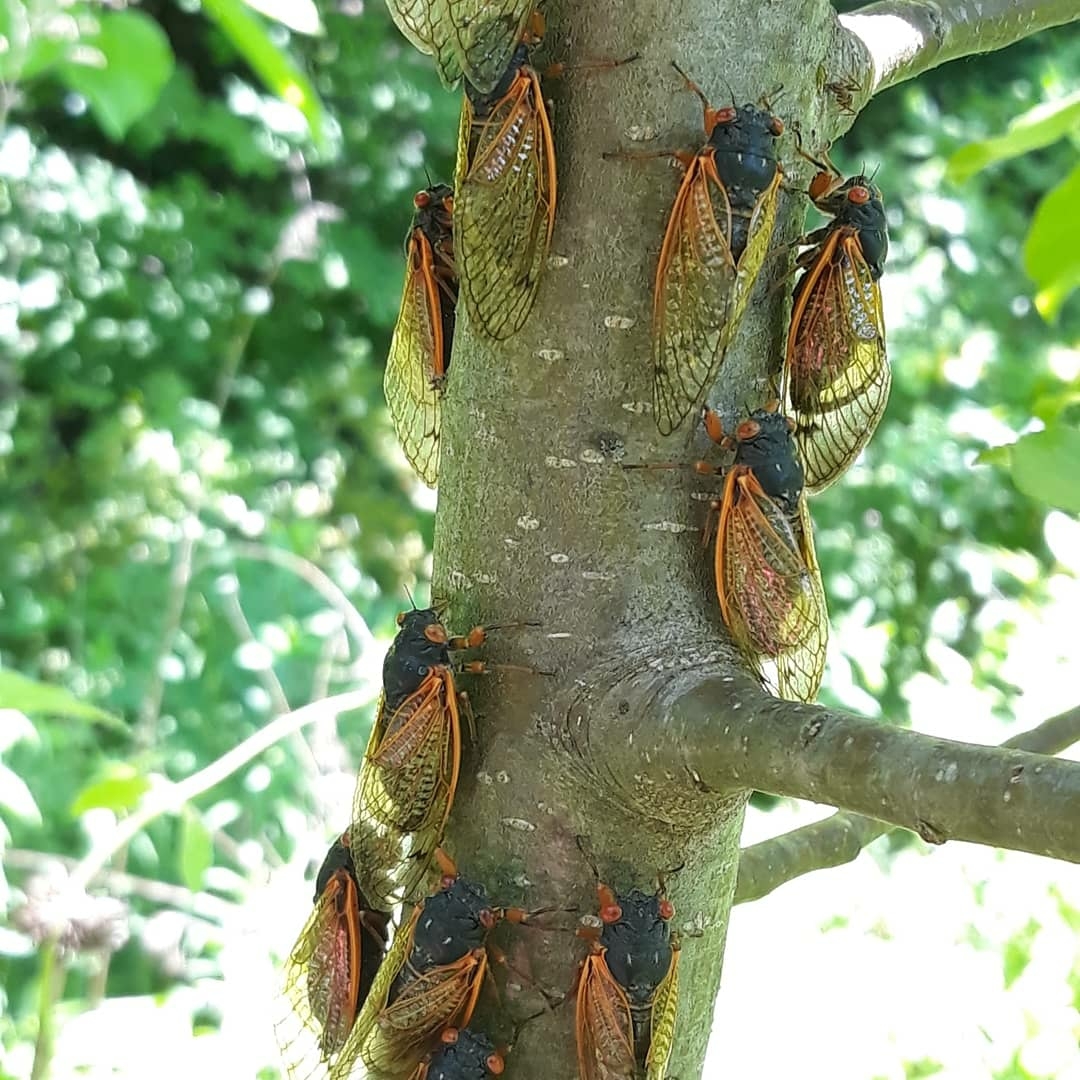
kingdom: Animalia
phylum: Arthropoda
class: Insecta
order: Hemiptera
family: Cicadidae
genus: Magicicada
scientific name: Magicicada
